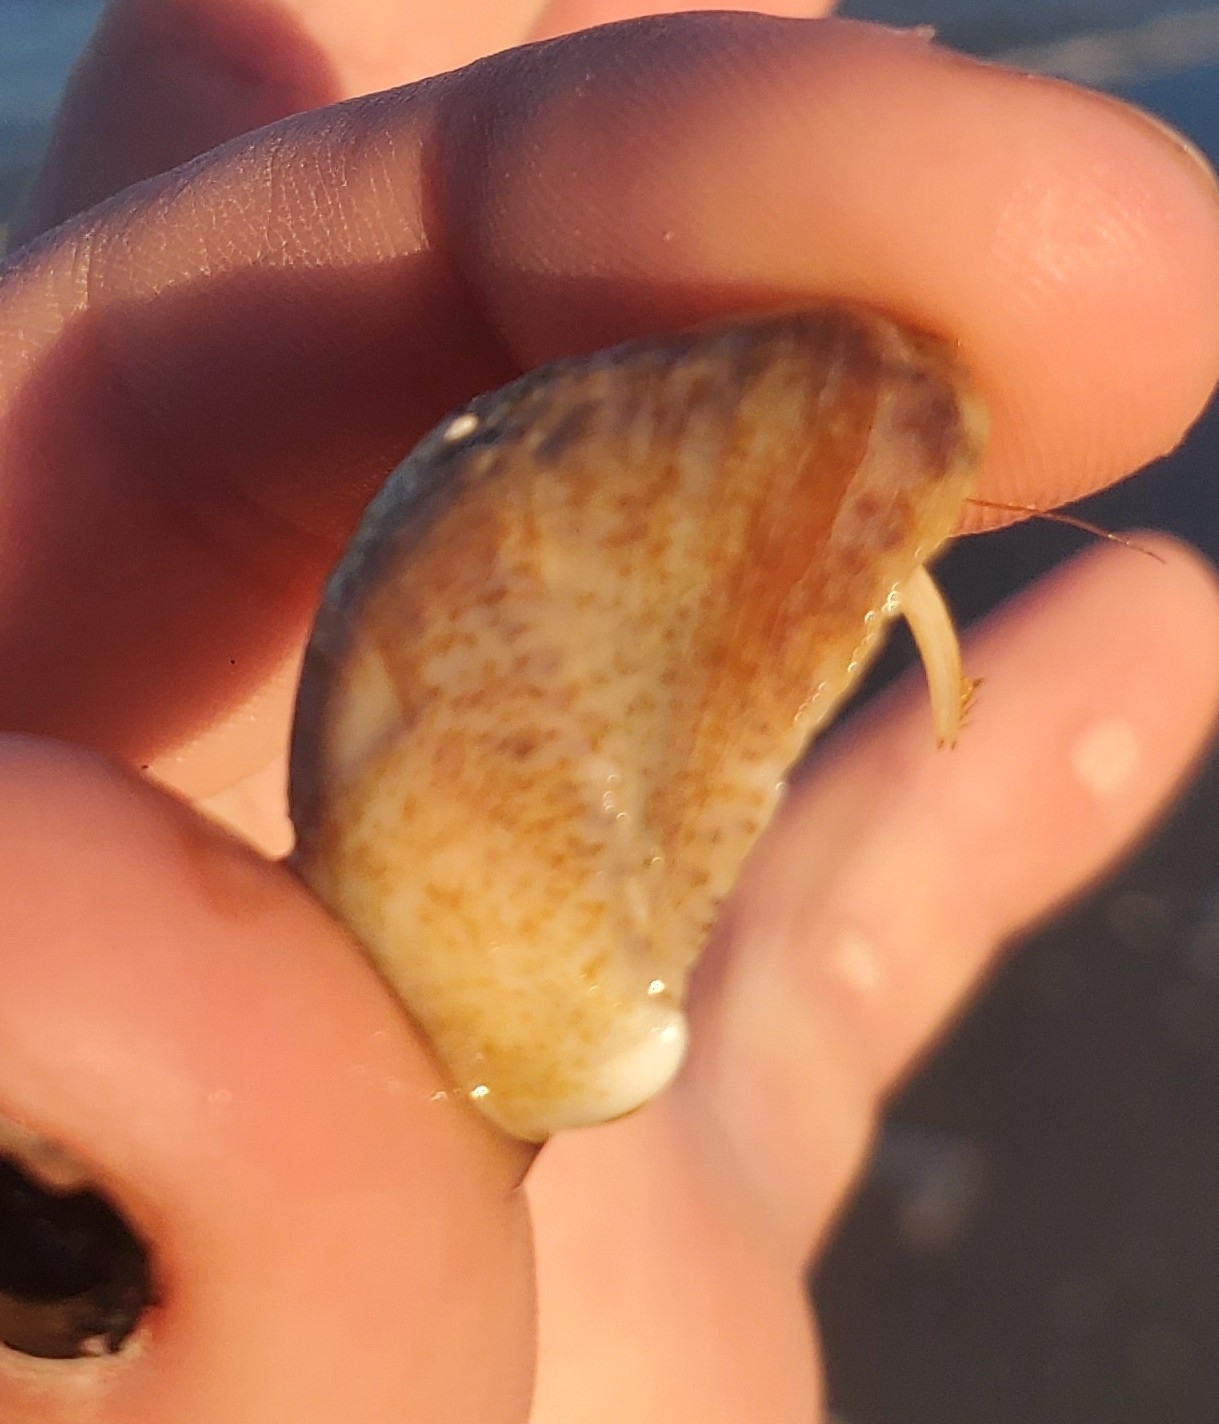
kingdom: Animalia
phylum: Mollusca
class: Gastropoda
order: Littorinimorpha
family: Calyptraeidae
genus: Crepidula
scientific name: Crepidula fornicata
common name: Slipper limpet
